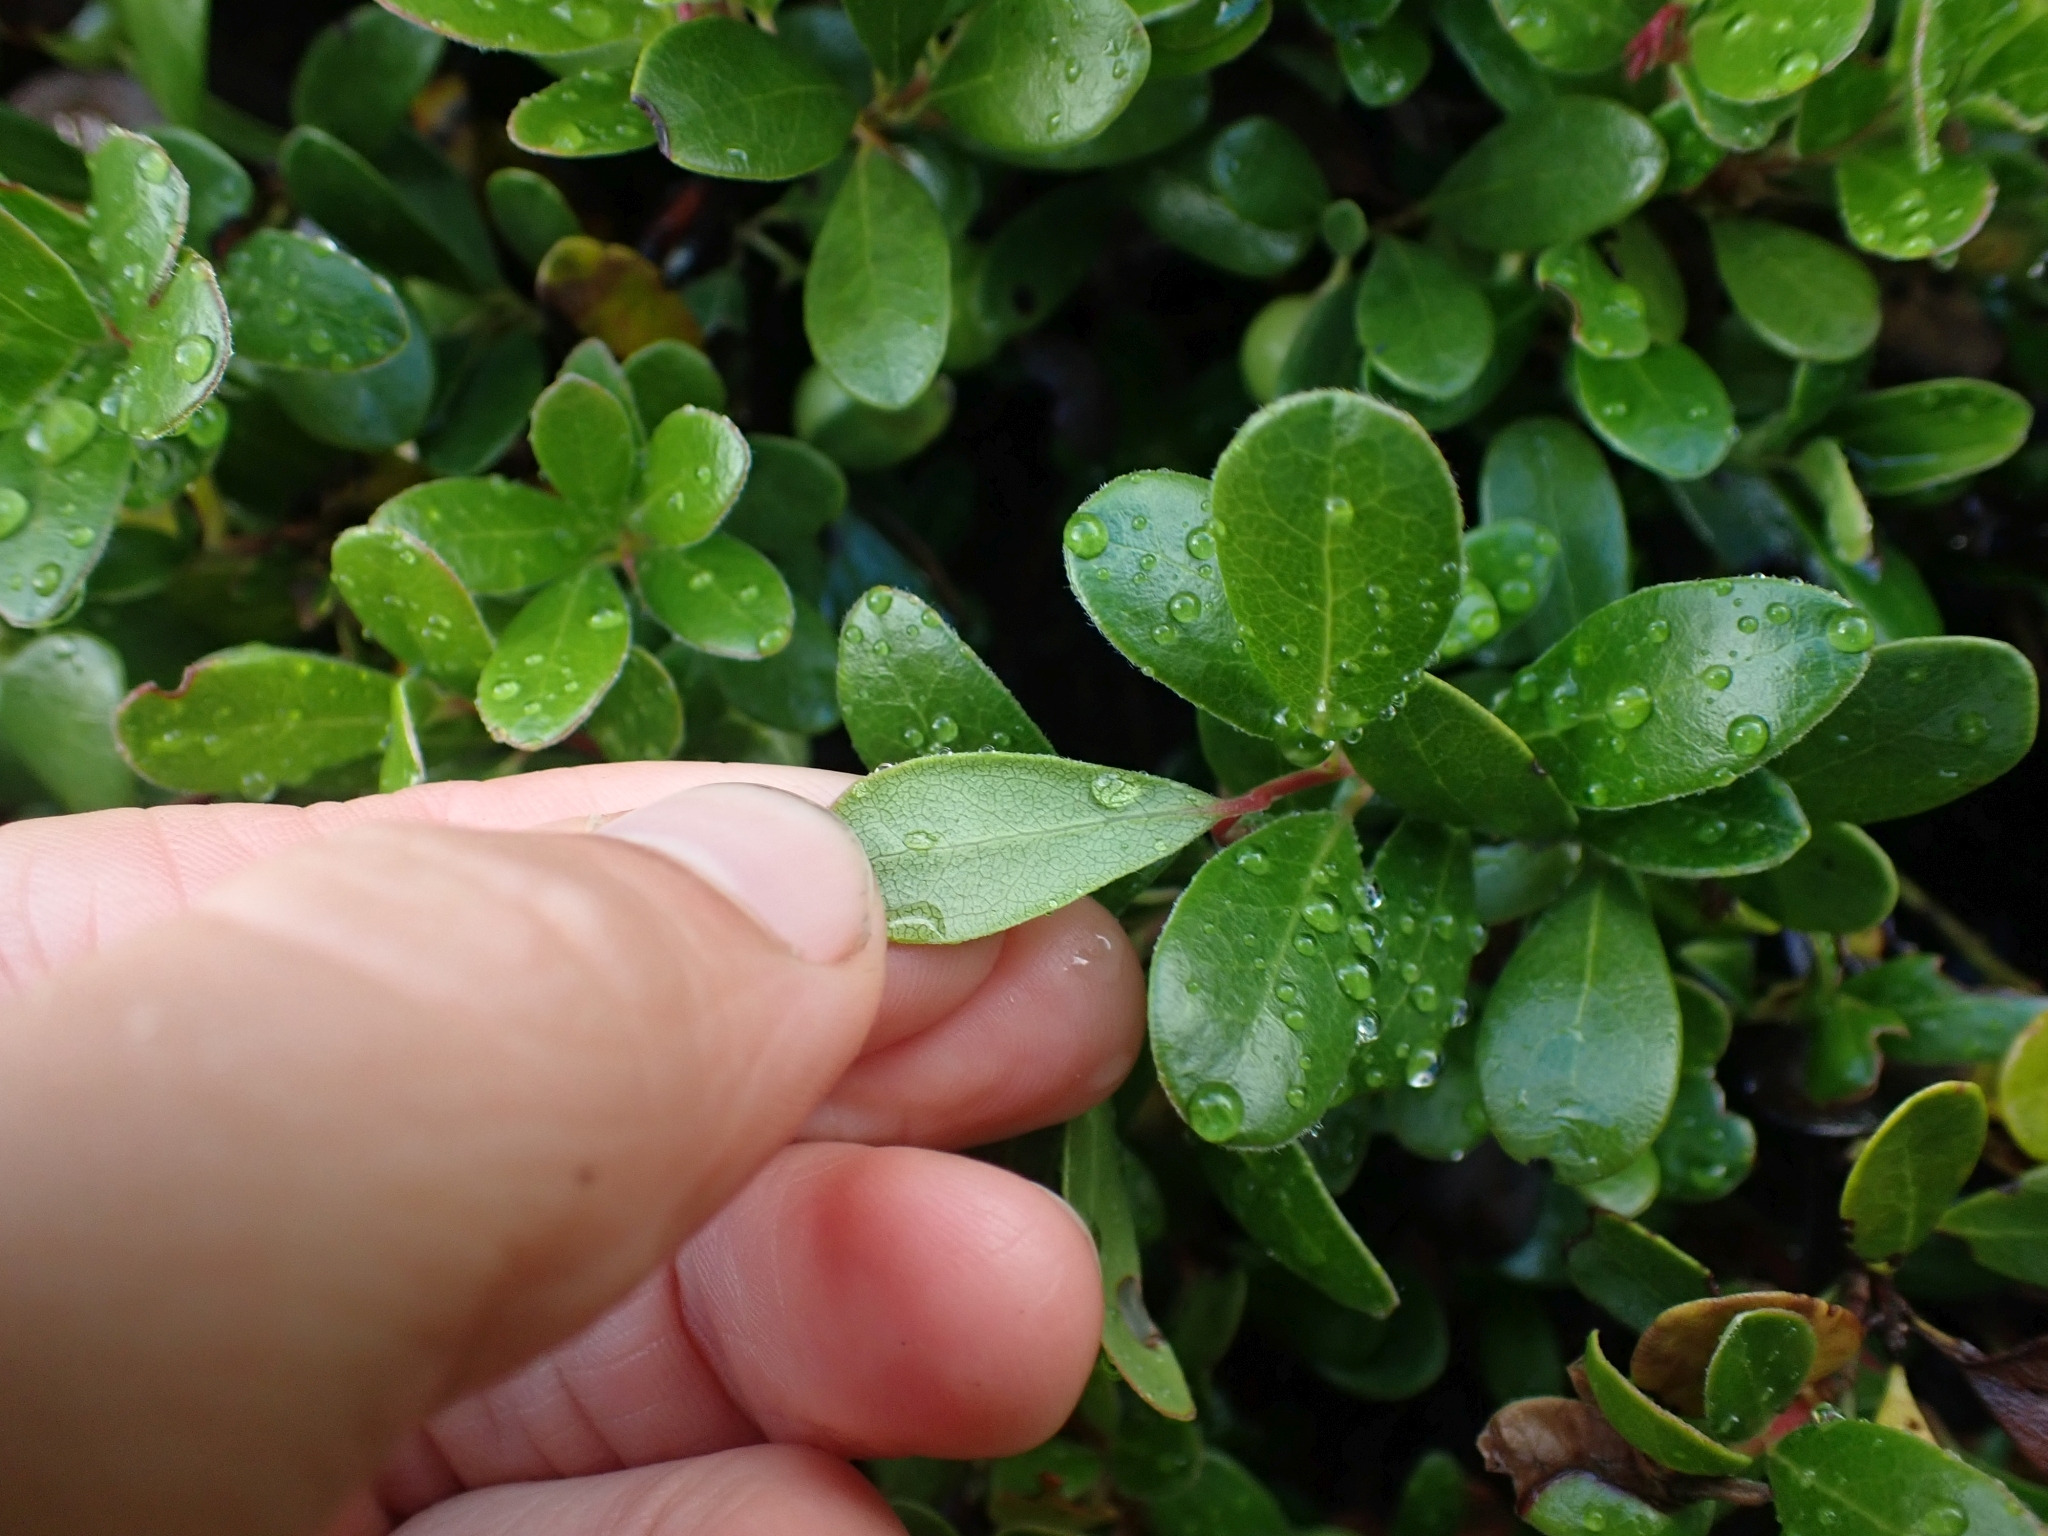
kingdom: Plantae
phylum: Tracheophyta
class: Magnoliopsida
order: Ericales
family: Ericaceae
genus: Arctostaphylos
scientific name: Arctostaphylos uva-ursi
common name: Bearberry
